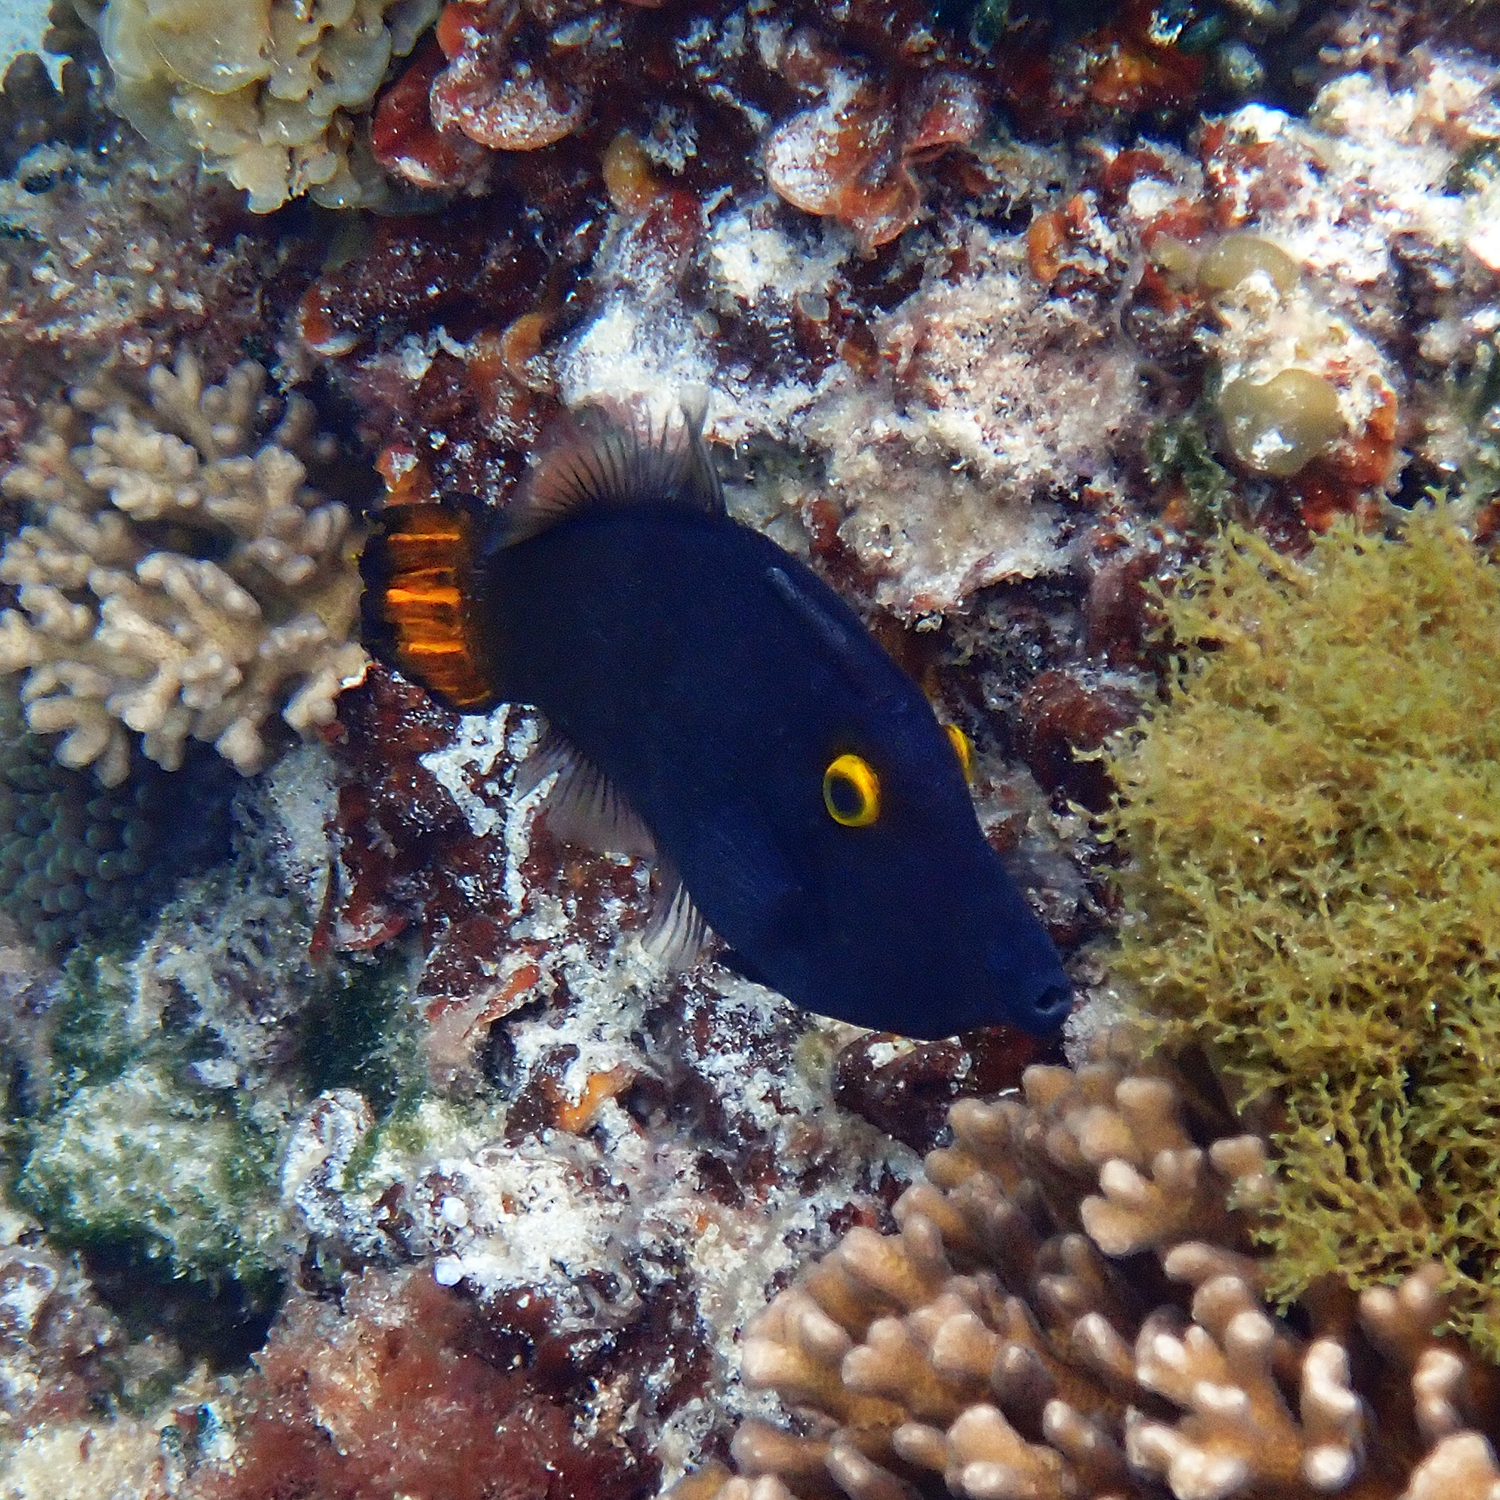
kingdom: Animalia
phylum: Chordata
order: Tetraodontiformes
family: Monacanthidae
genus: Pervagor
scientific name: Pervagor alternans
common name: Yelloweye filefish
